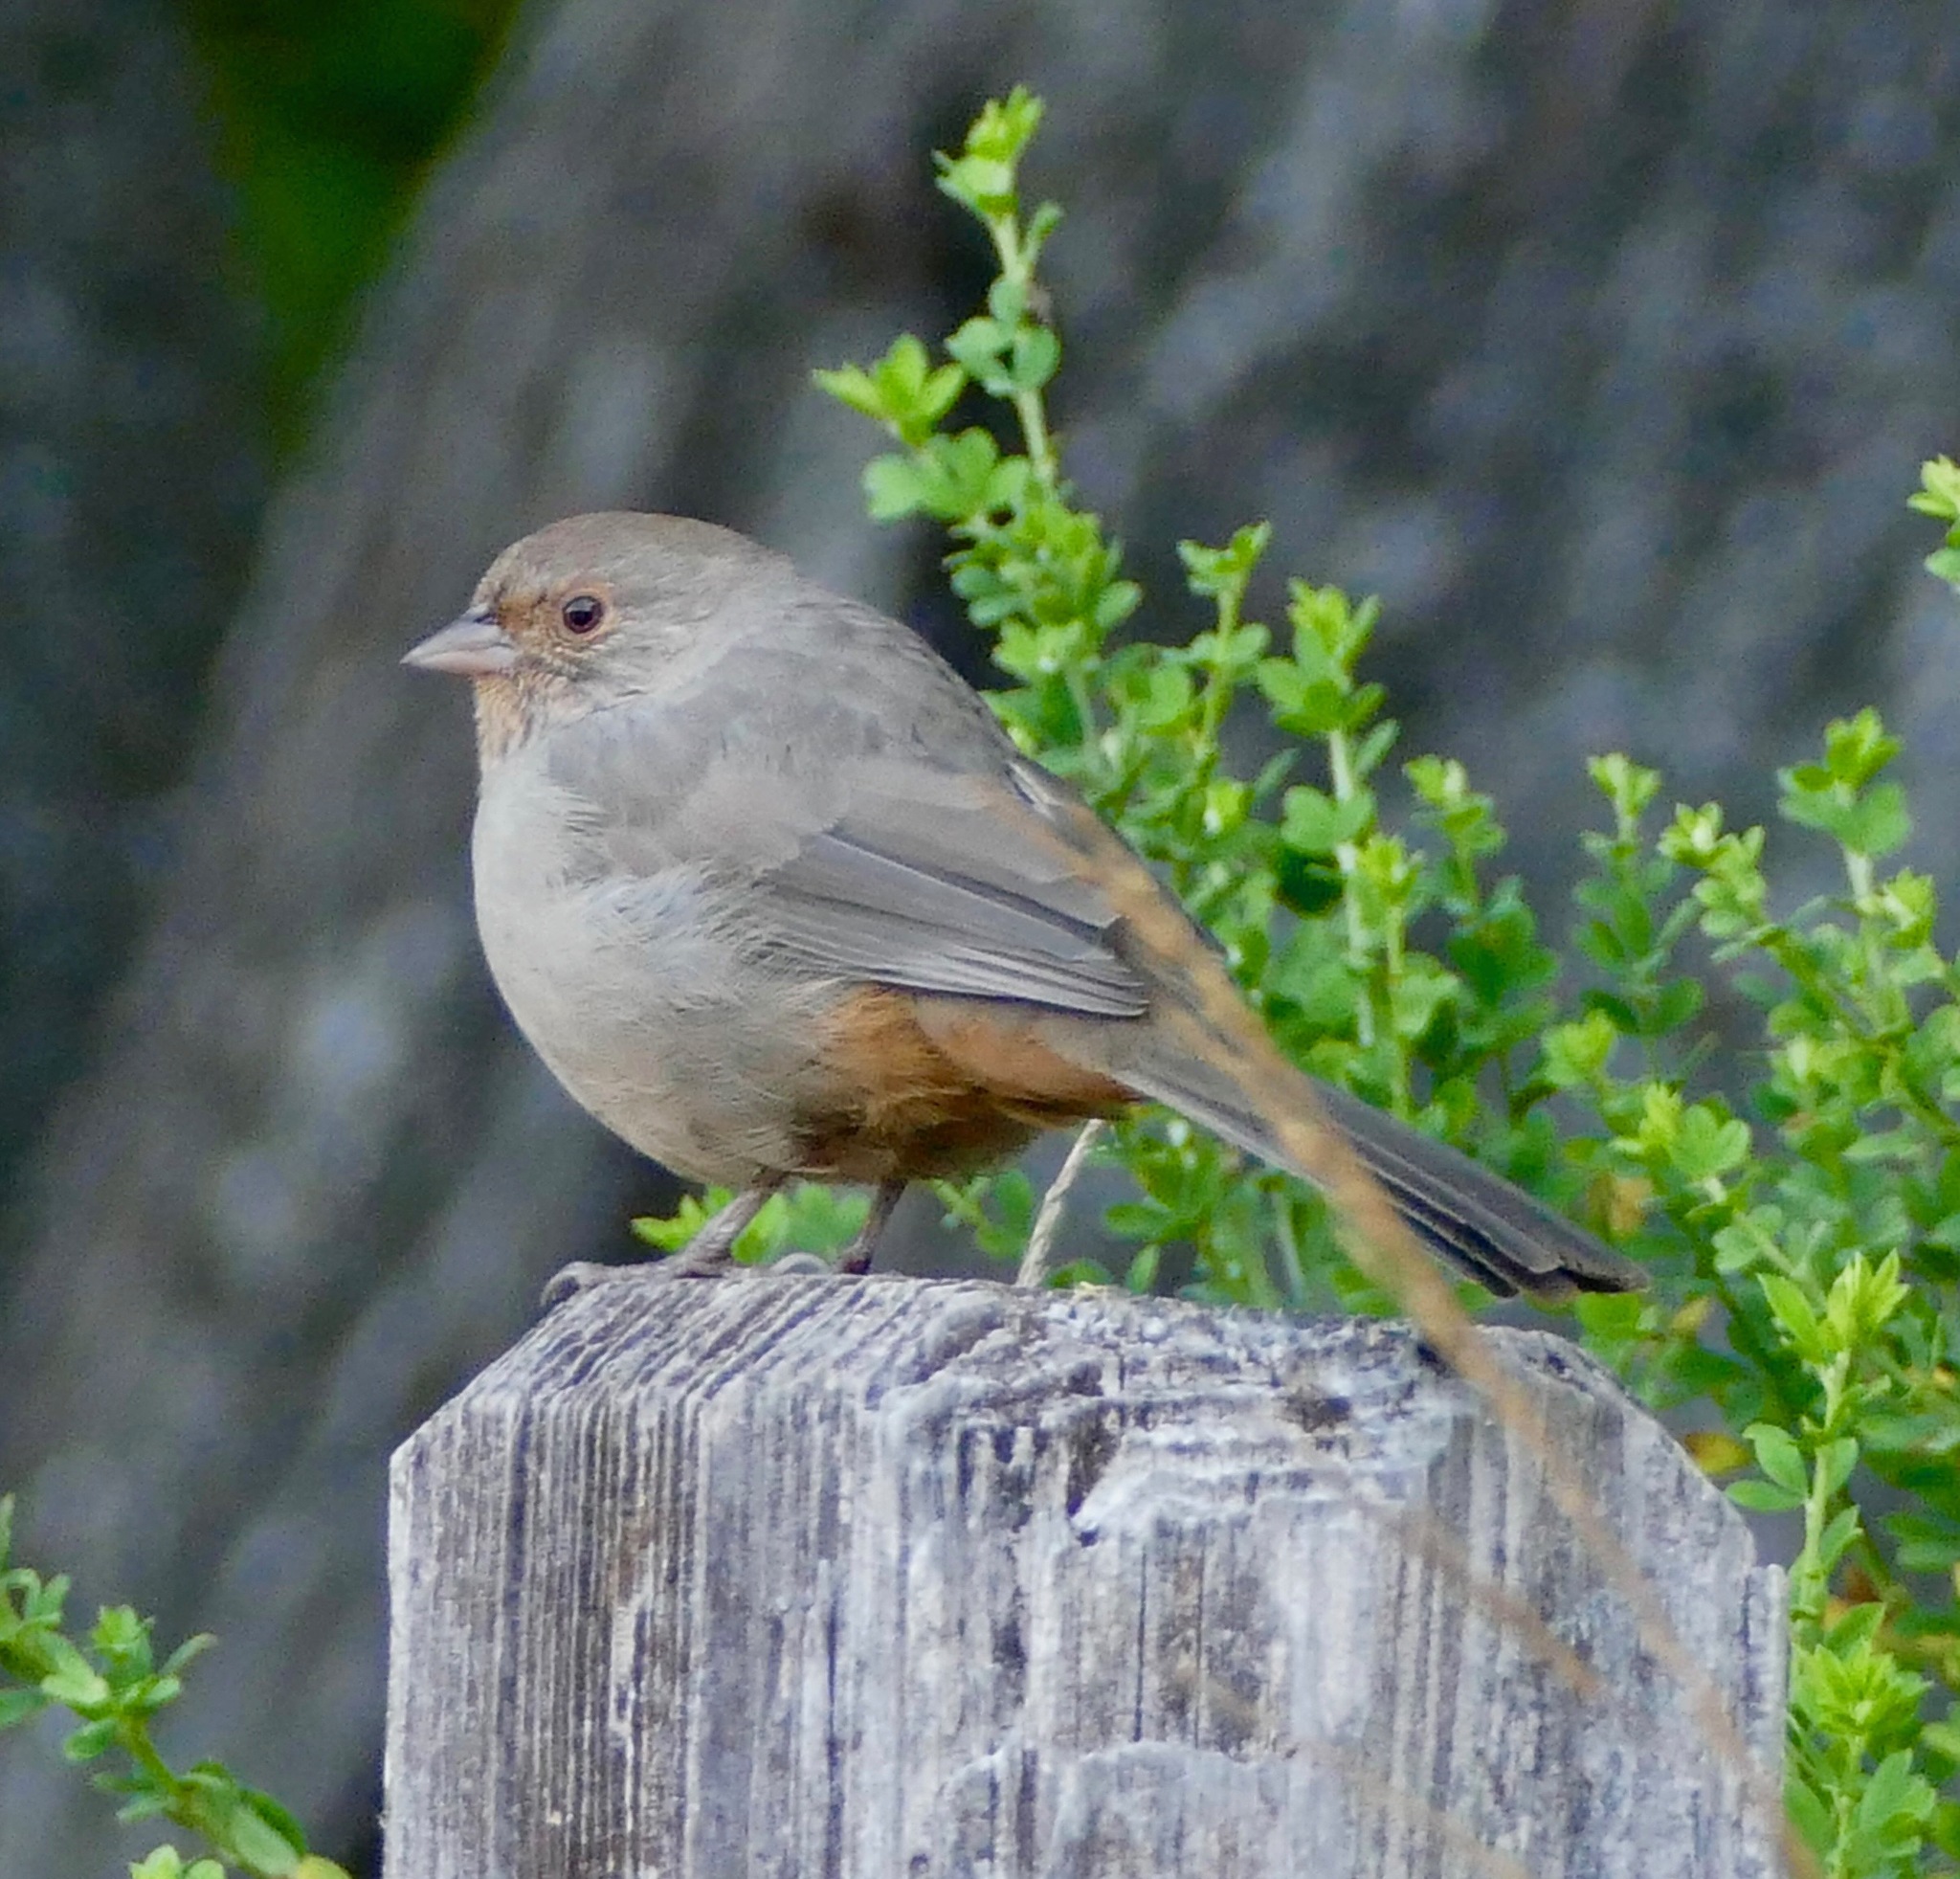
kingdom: Animalia
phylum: Chordata
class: Aves
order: Passeriformes
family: Passerellidae
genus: Melozone
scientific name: Melozone crissalis
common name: California towhee
